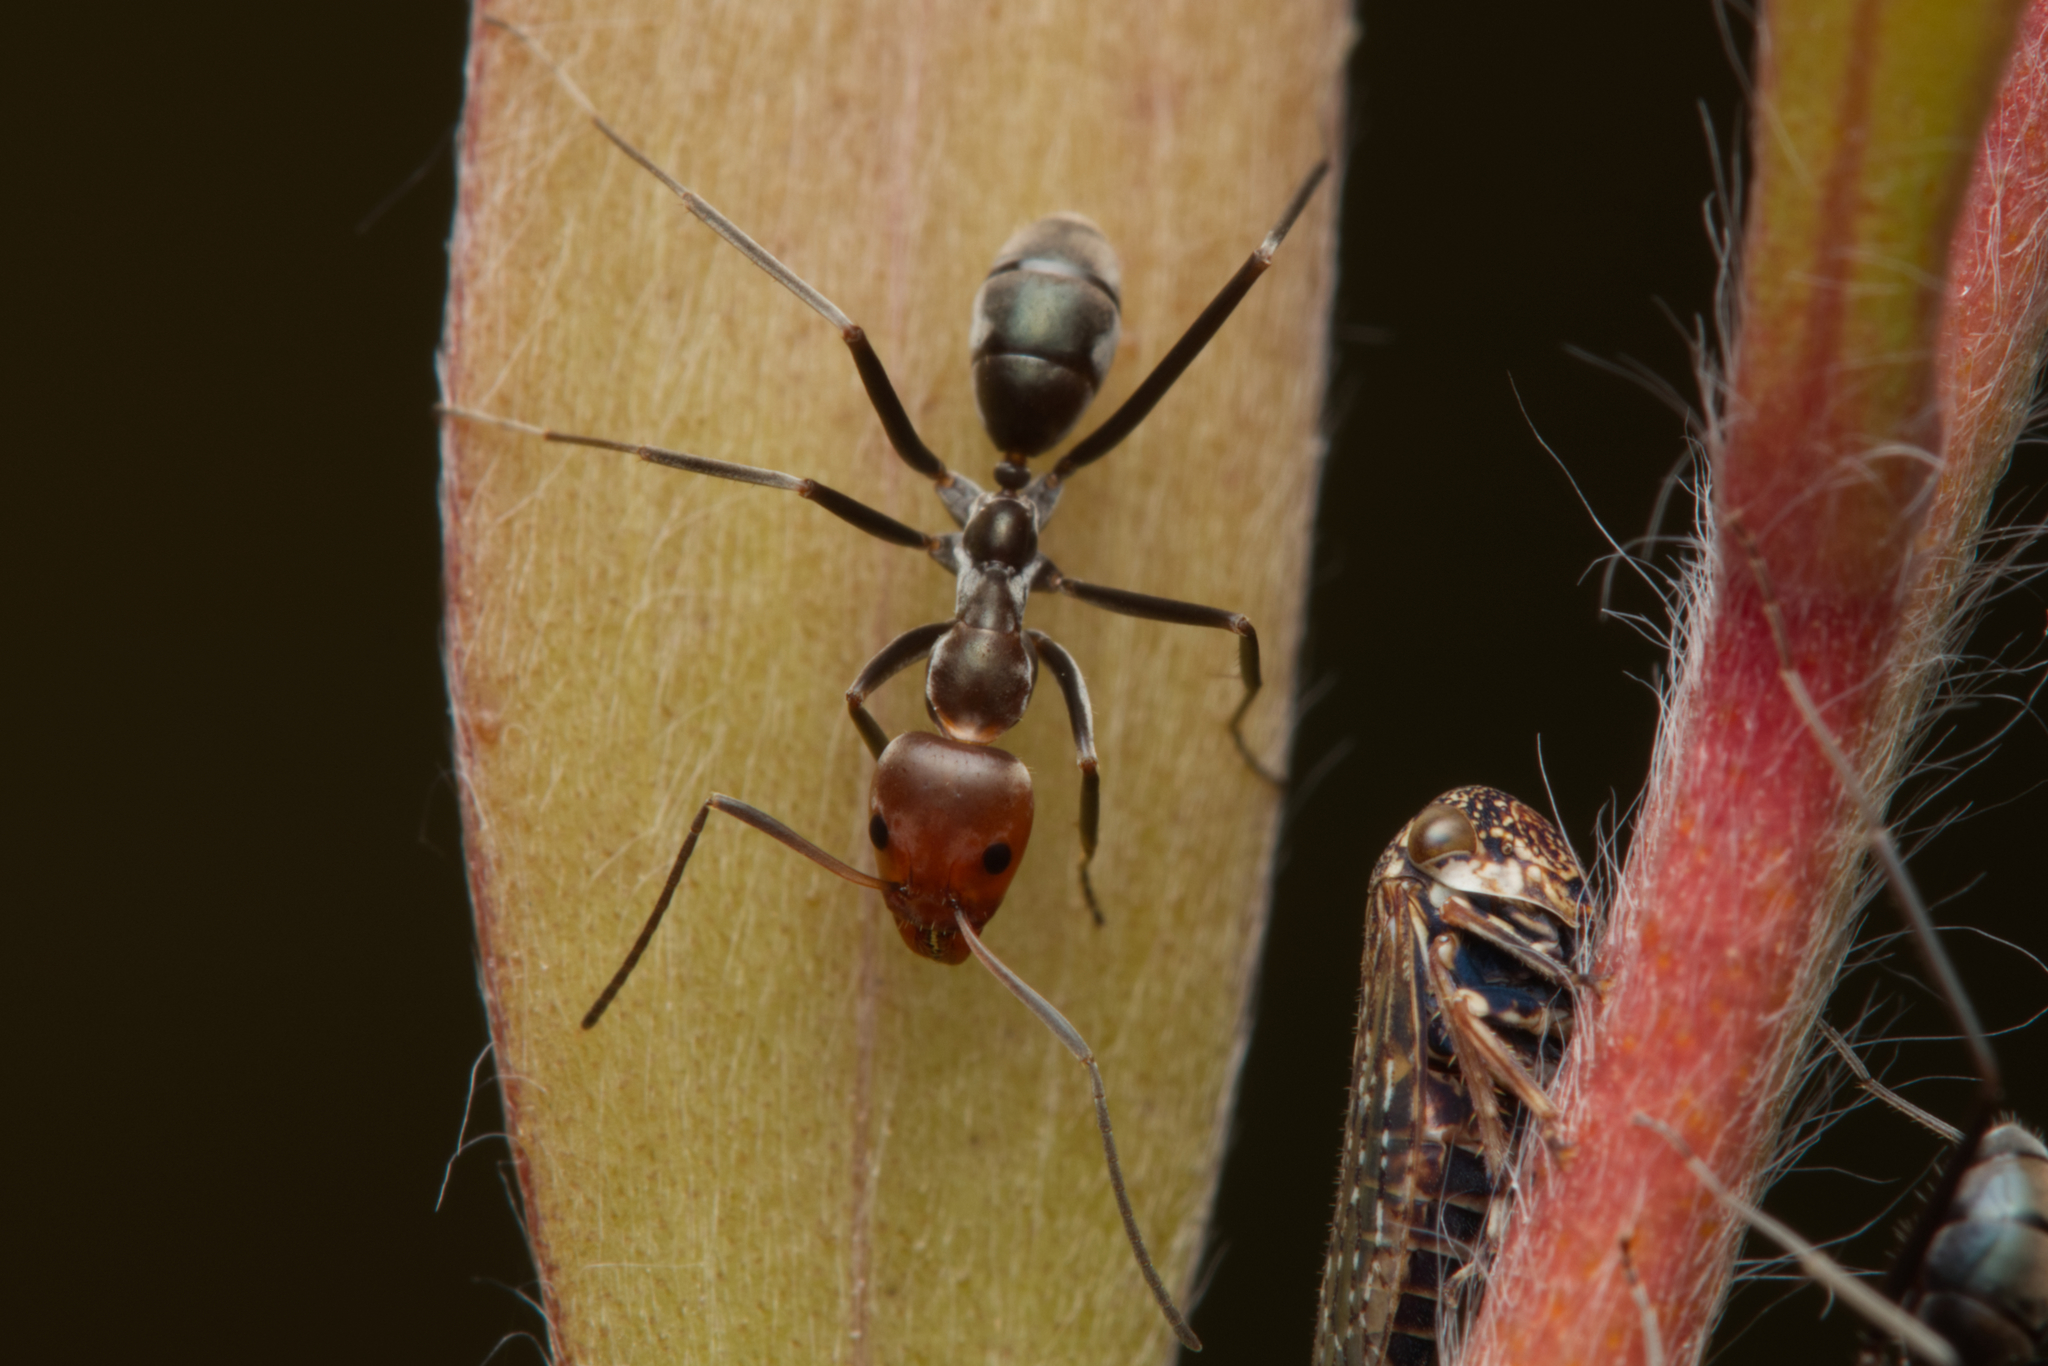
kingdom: Animalia
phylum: Arthropoda
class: Insecta
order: Hymenoptera
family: Formicidae
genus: Iridomyrmex
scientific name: Iridomyrmex
